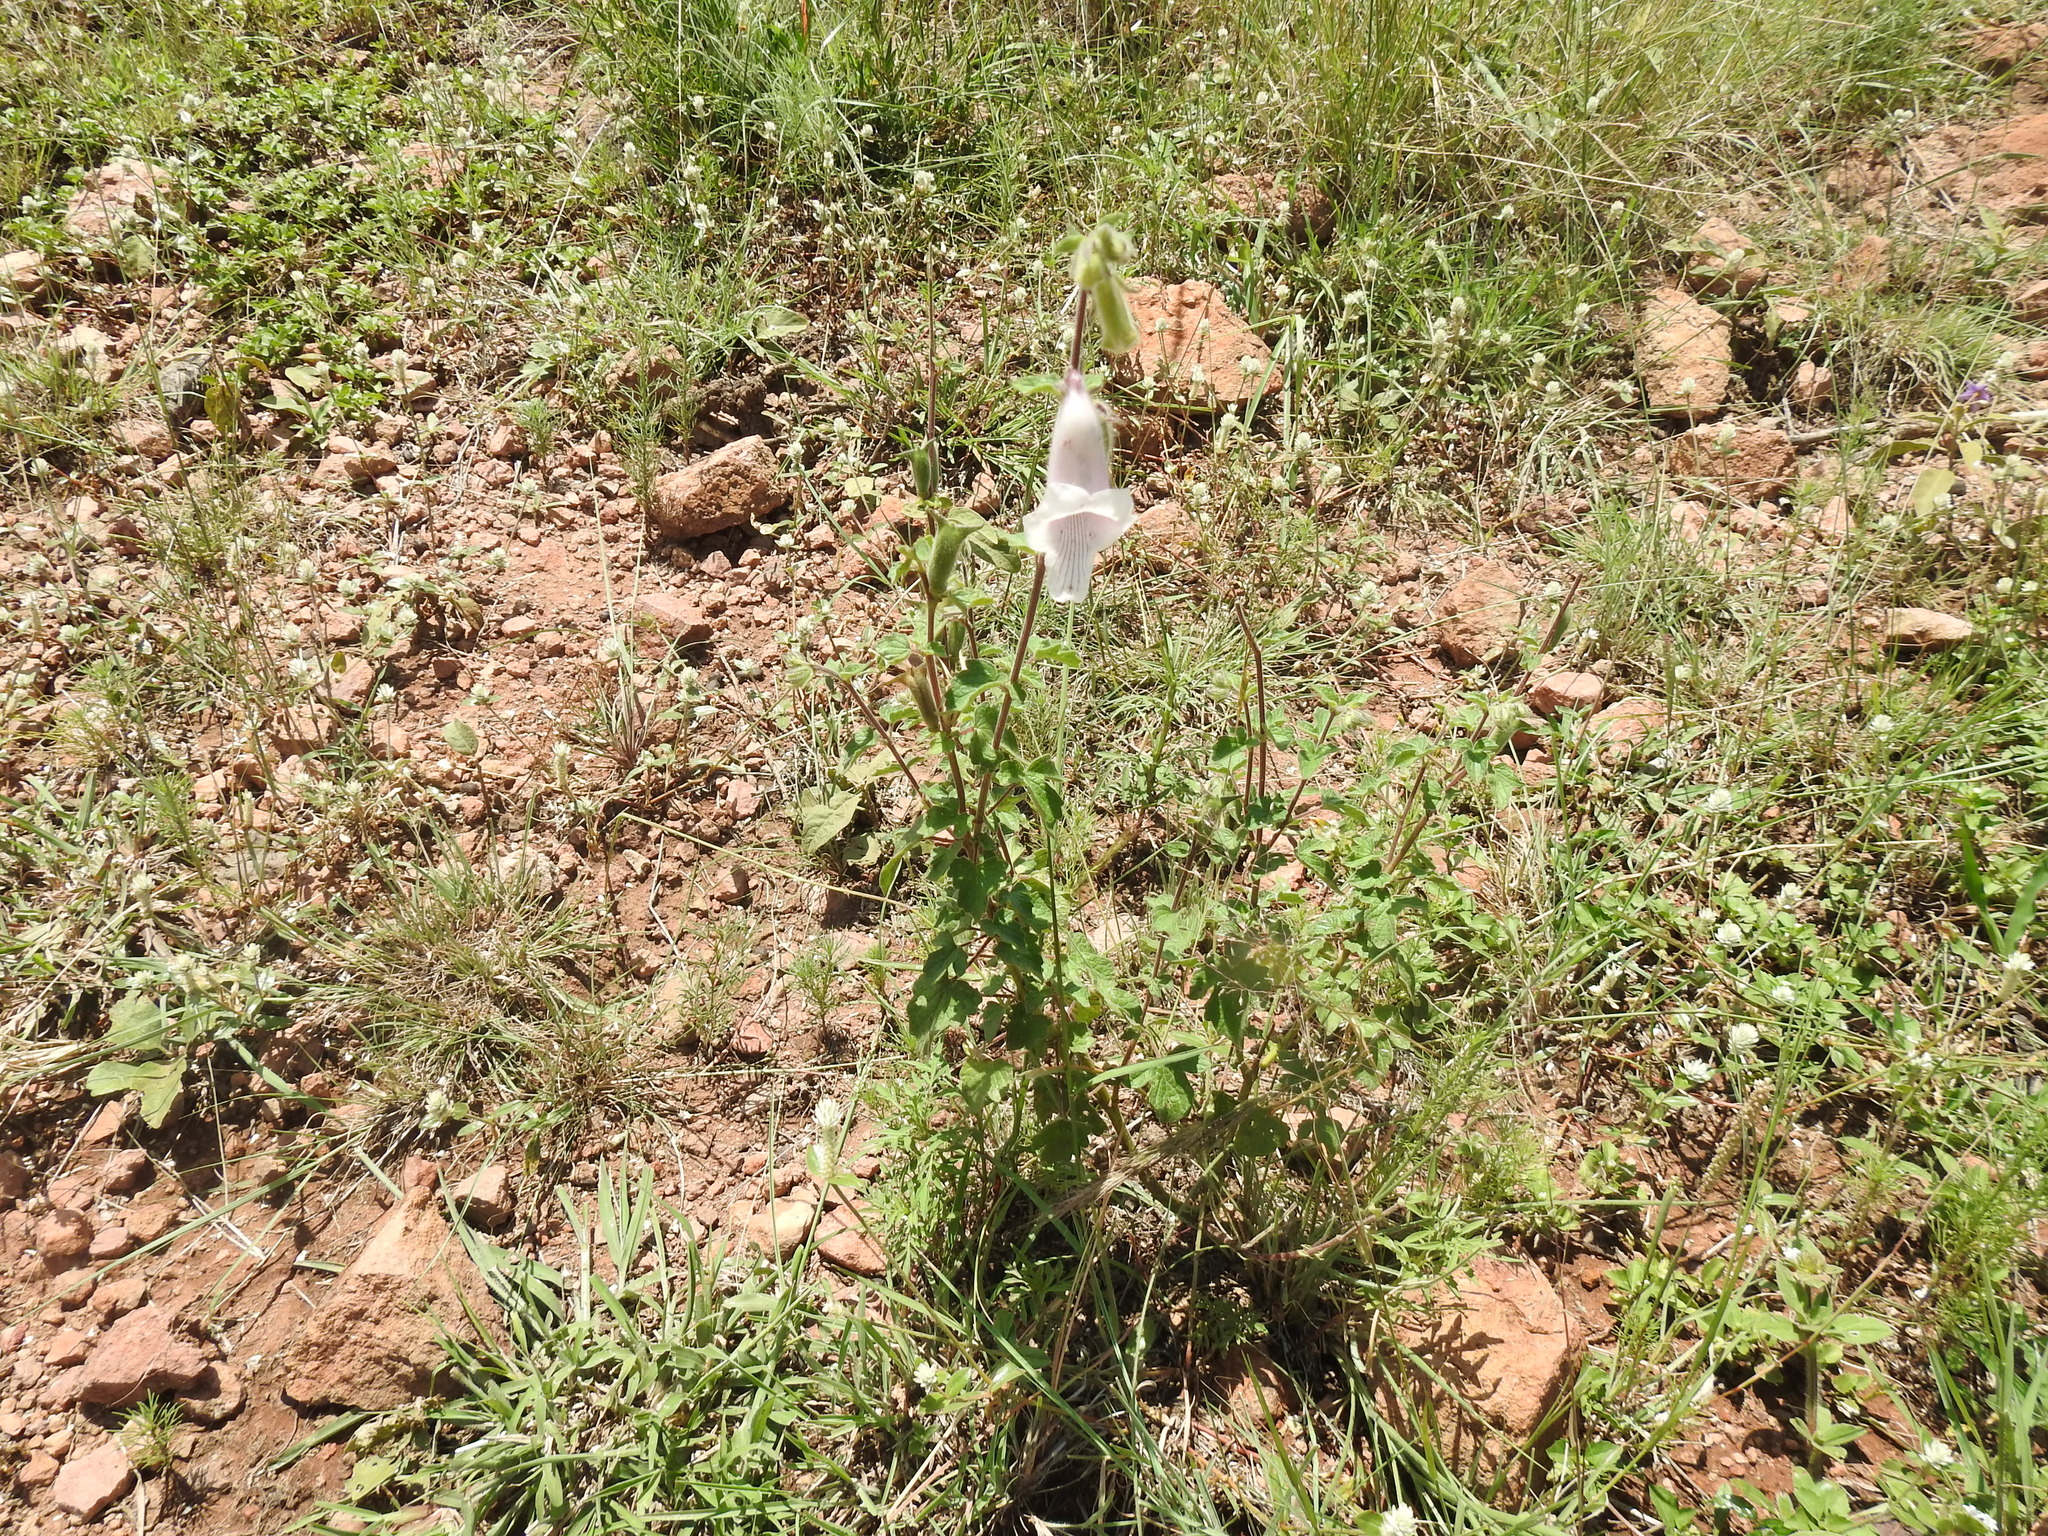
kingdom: Plantae
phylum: Tracheophyta
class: Magnoliopsida
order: Lamiales
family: Pedaliaceae
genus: Sesamum
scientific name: Sesamum trilobum
